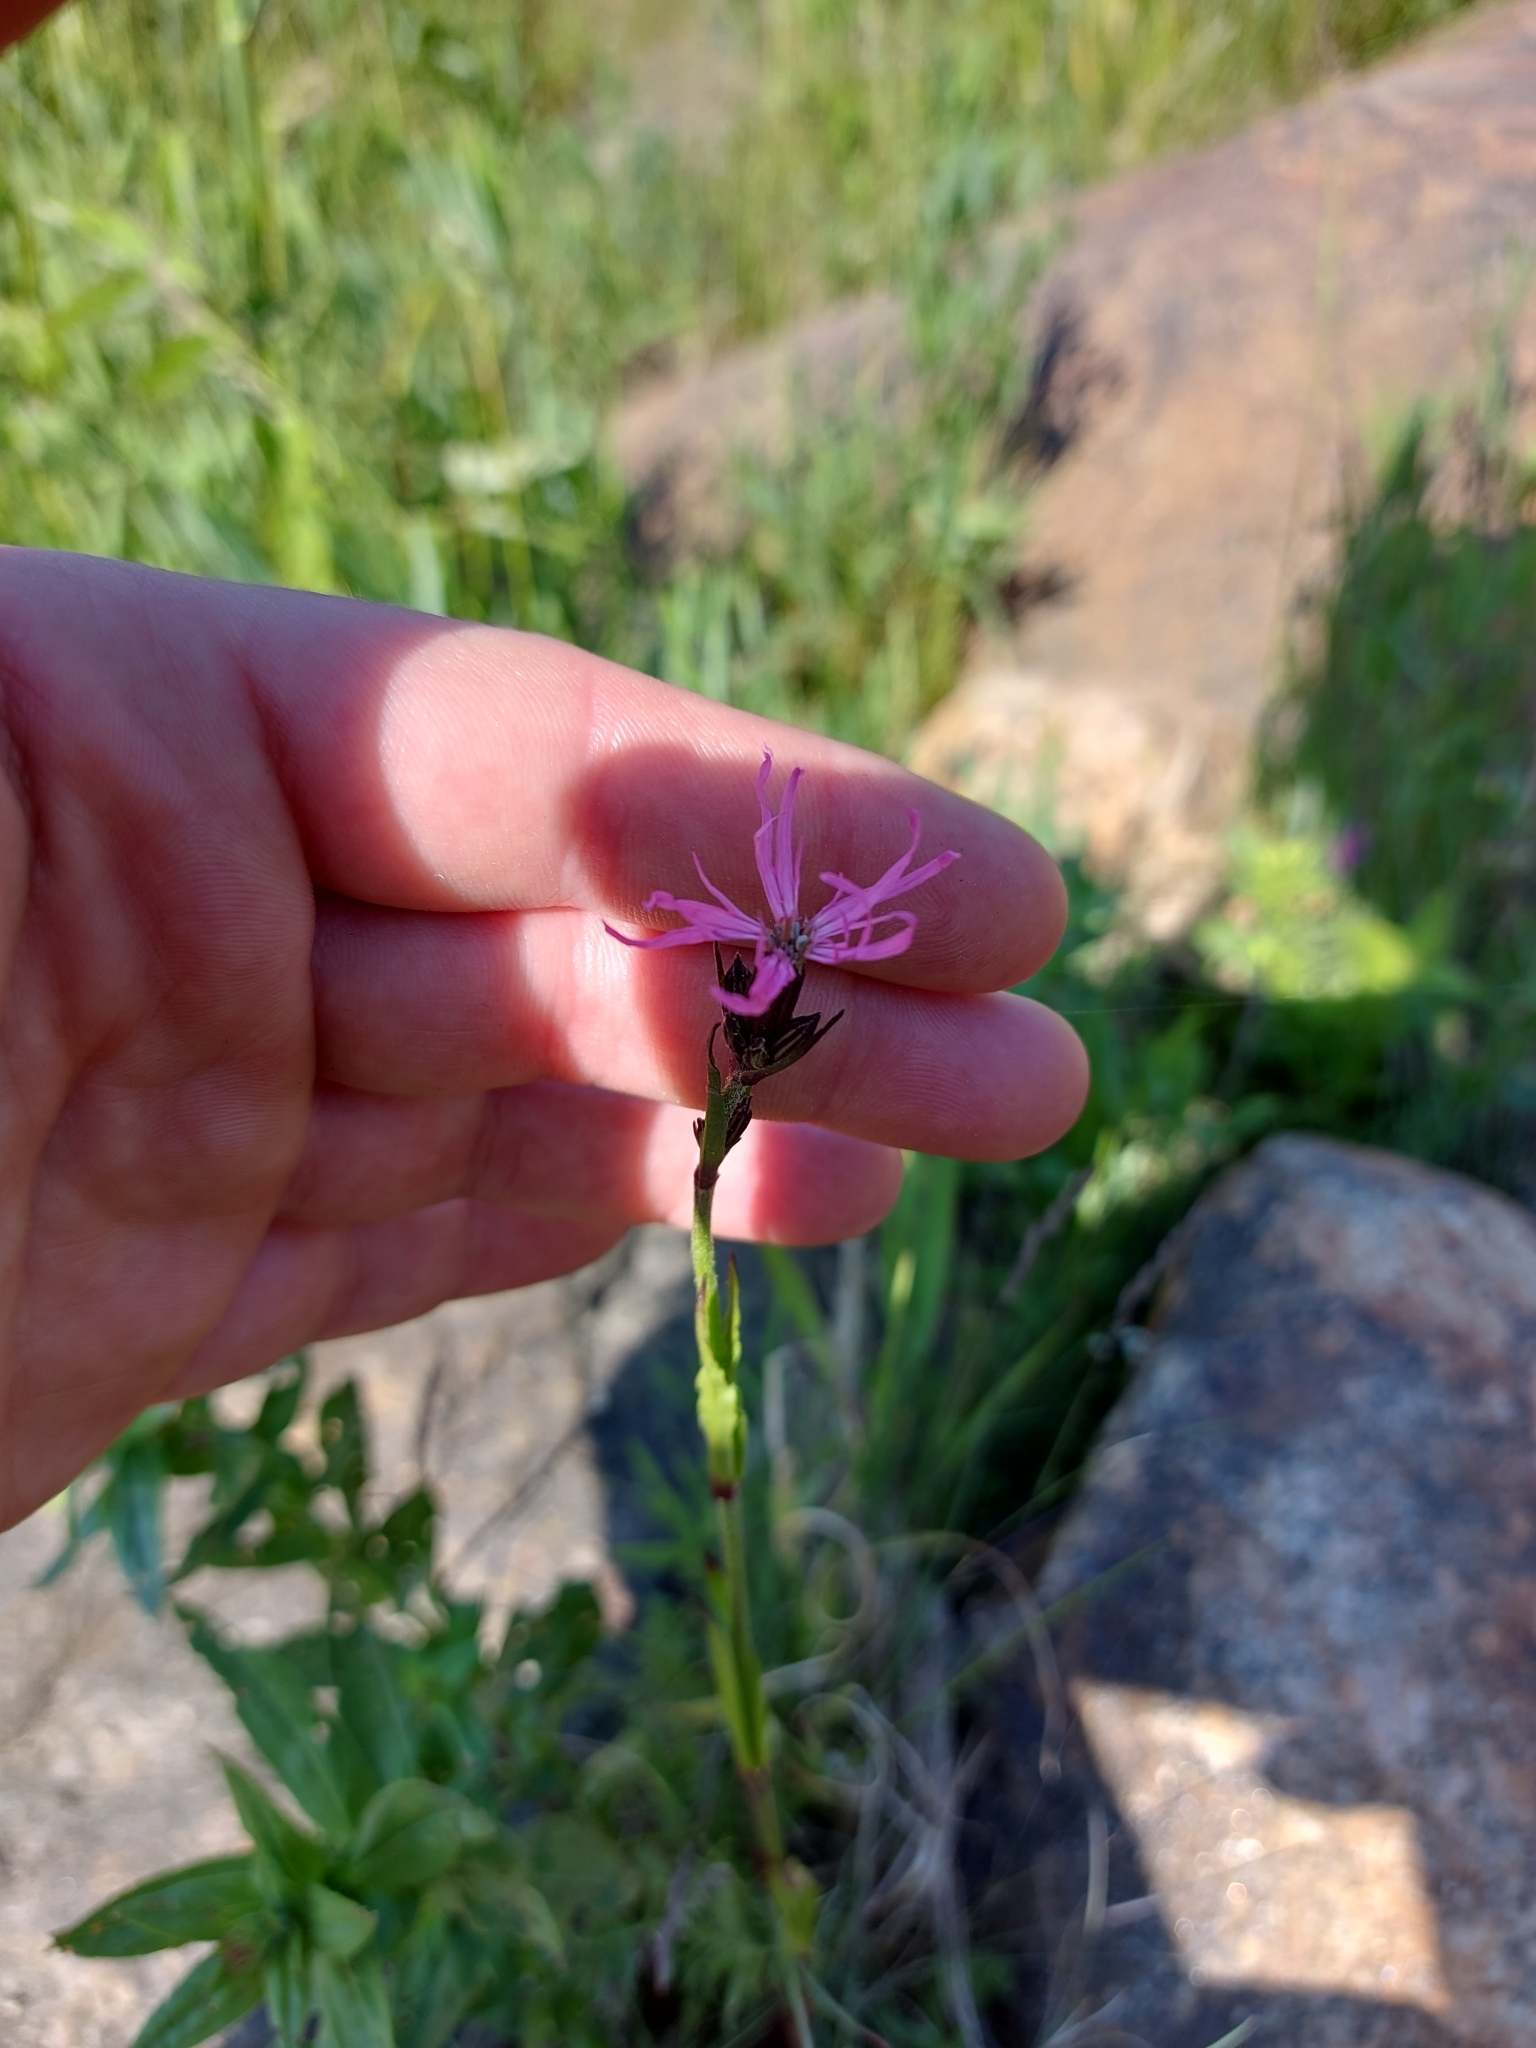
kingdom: Plantae
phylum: Tracheophyta
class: Magnoliopsida
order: Caryophyllales
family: Caryophyllaceae
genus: Silene
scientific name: Silene flos-cuculi
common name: Ragged-robin
